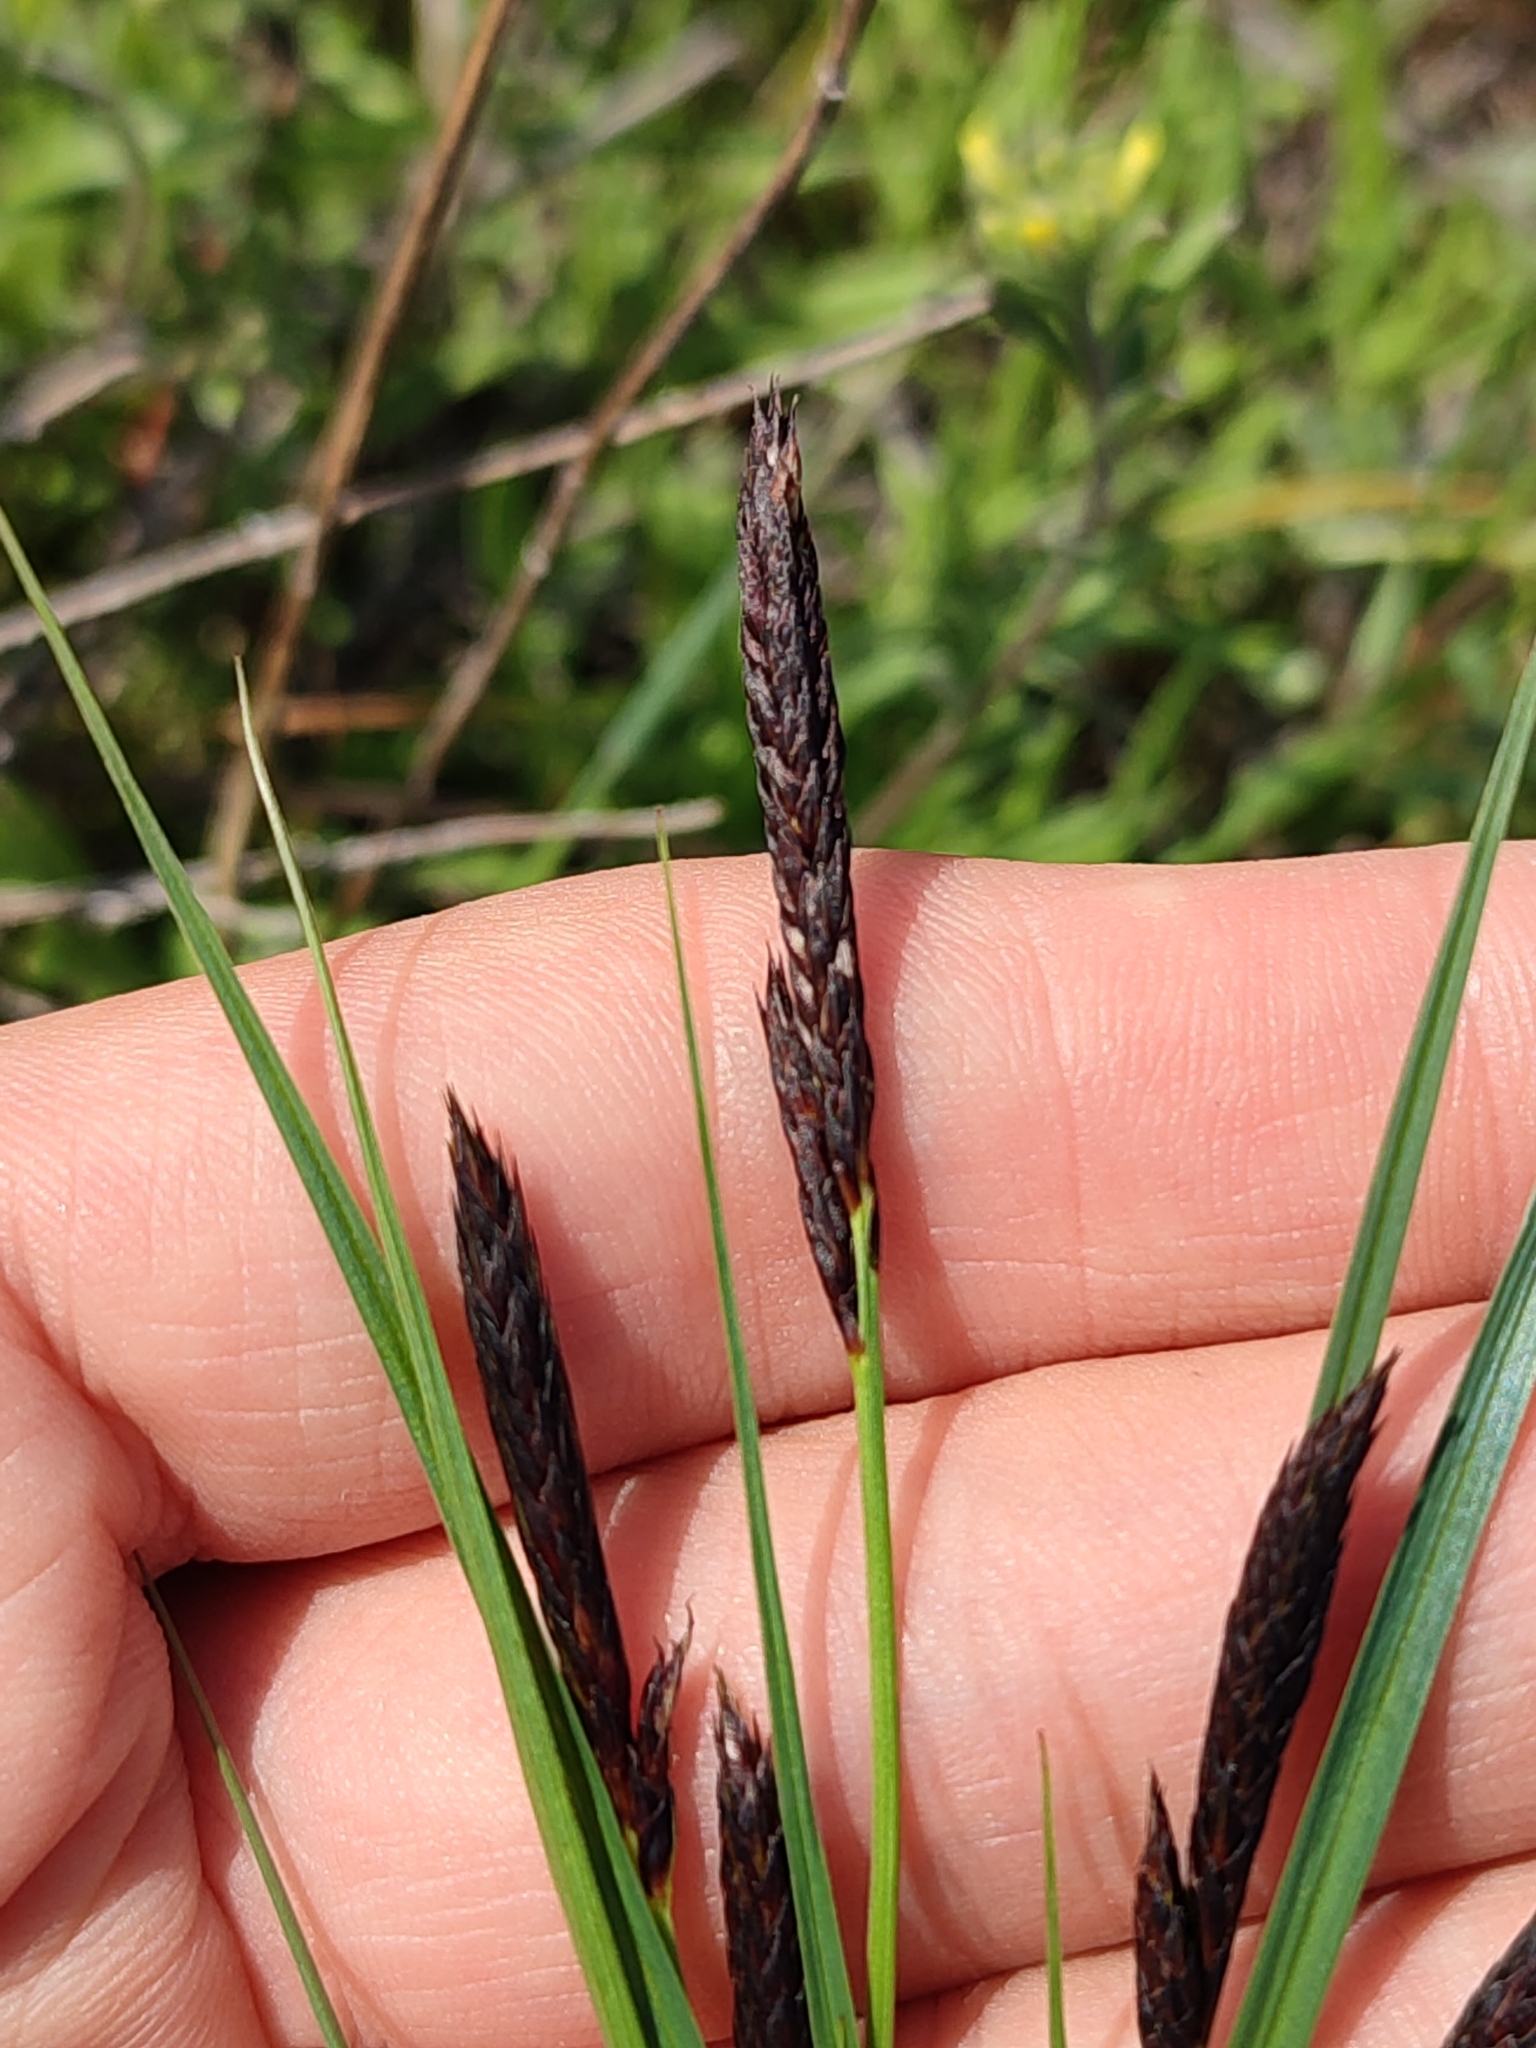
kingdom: Plantae
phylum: Tracheophyta
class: Liliopsida
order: Poales
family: Cyperaceae
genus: Carex
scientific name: Carex melanostachya
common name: Black-spiked sedge
